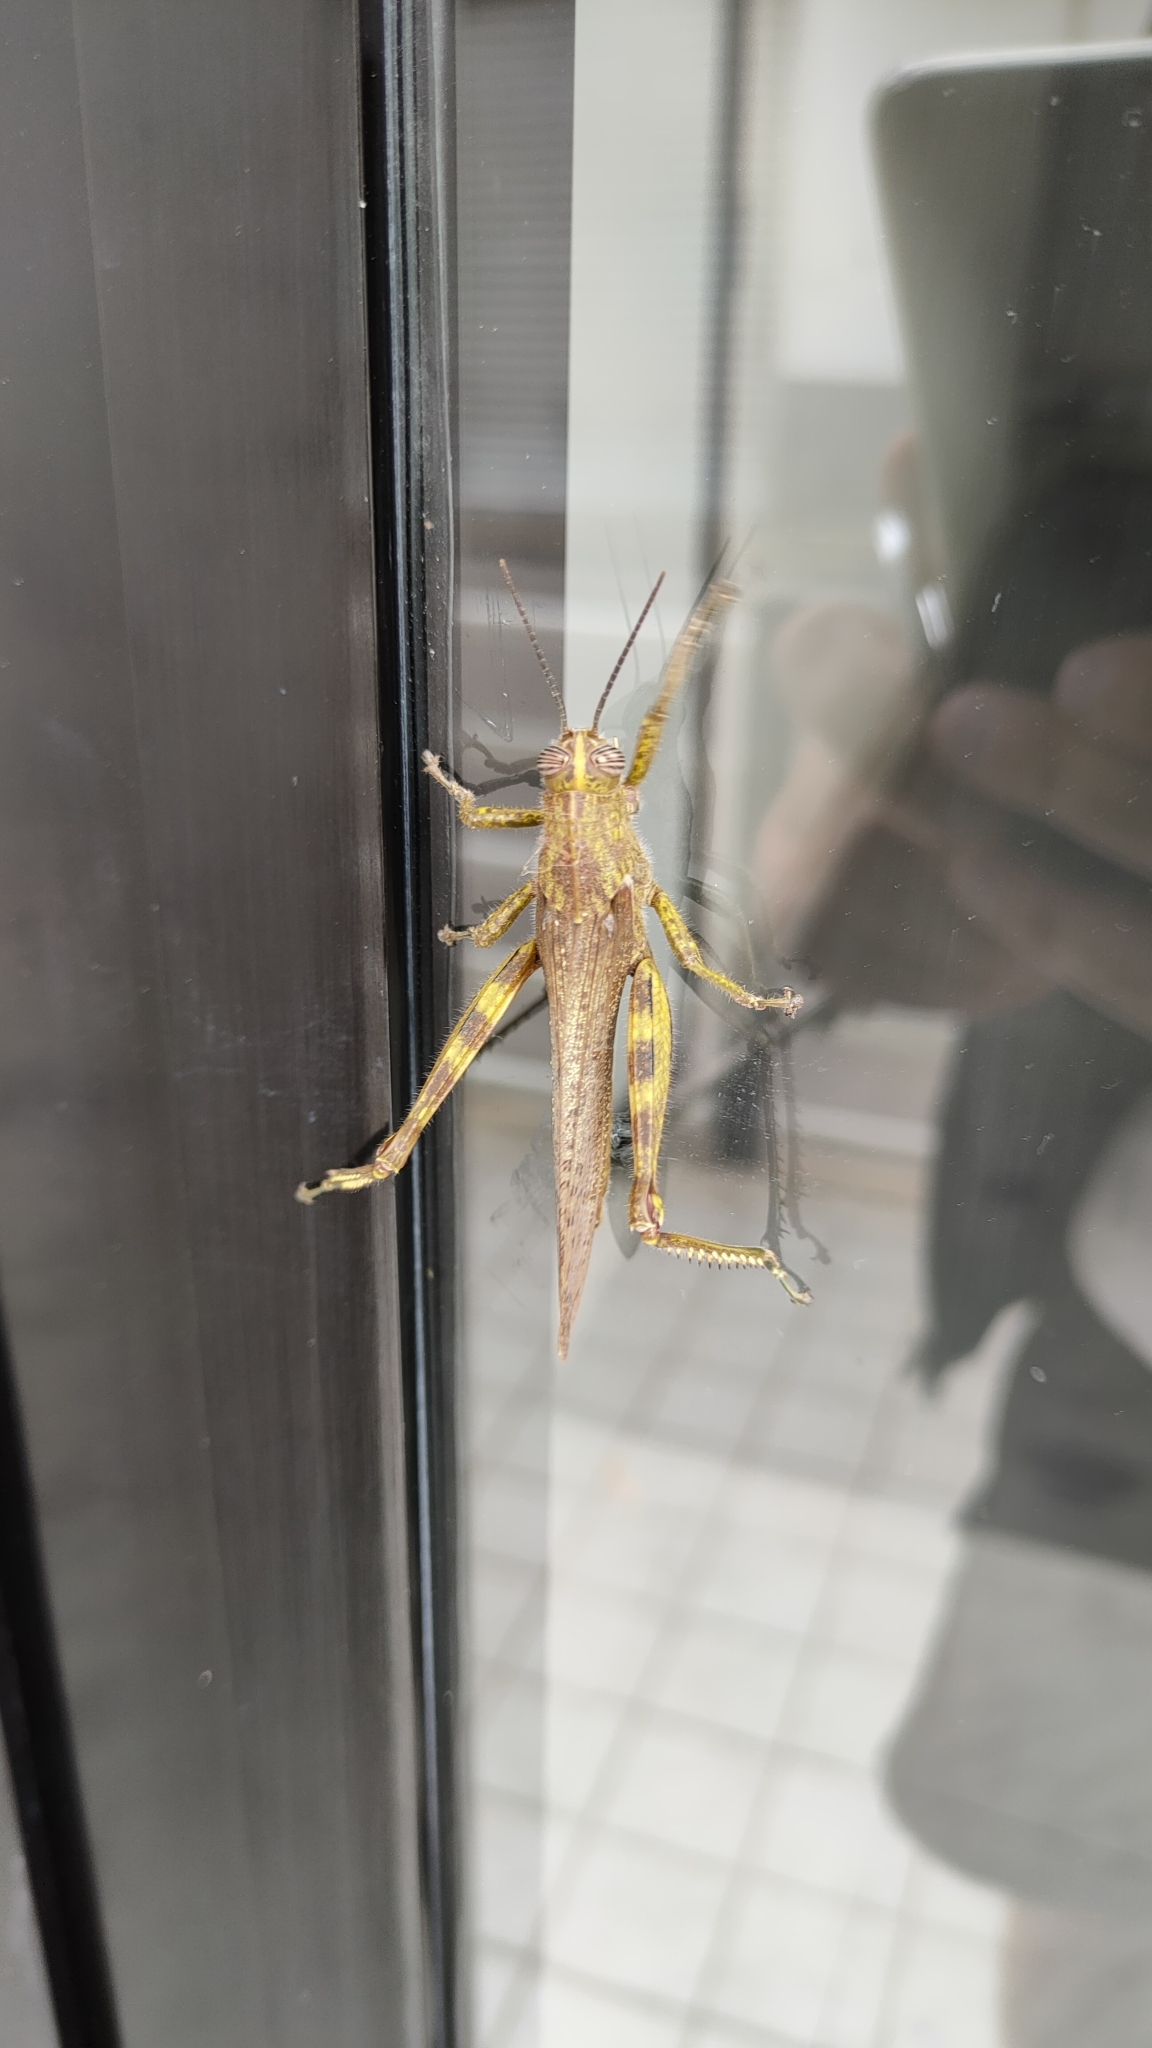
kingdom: Animalia
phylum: Arthropoda
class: Insecta
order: Orthoptera
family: Acrididae
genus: Anacridium
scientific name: Anacridium aegyptium
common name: Egyptian grasshopper
